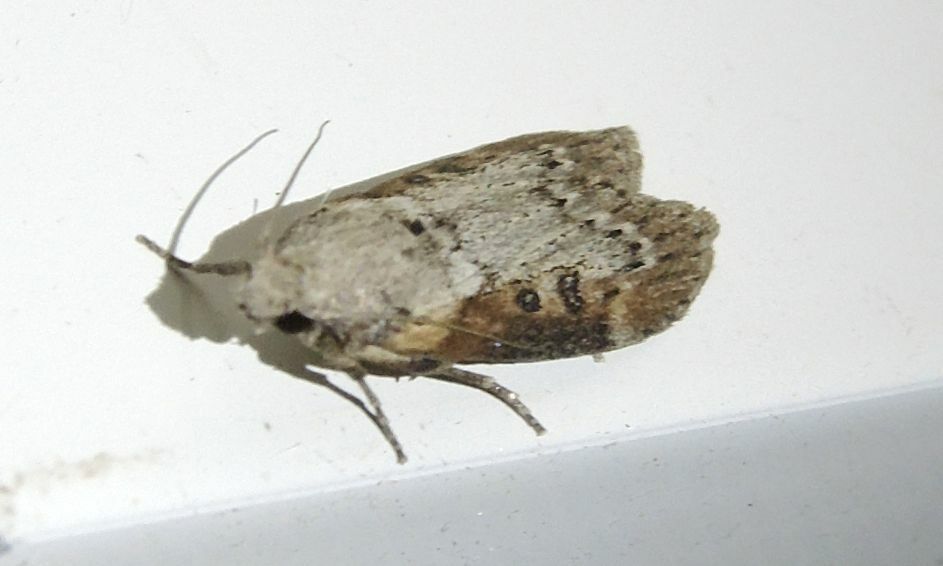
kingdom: Animalia
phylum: Arthropoda
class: Insecta
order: Lepidoptera
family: Pyralidae
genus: Lamoria
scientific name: Lamoria anella
